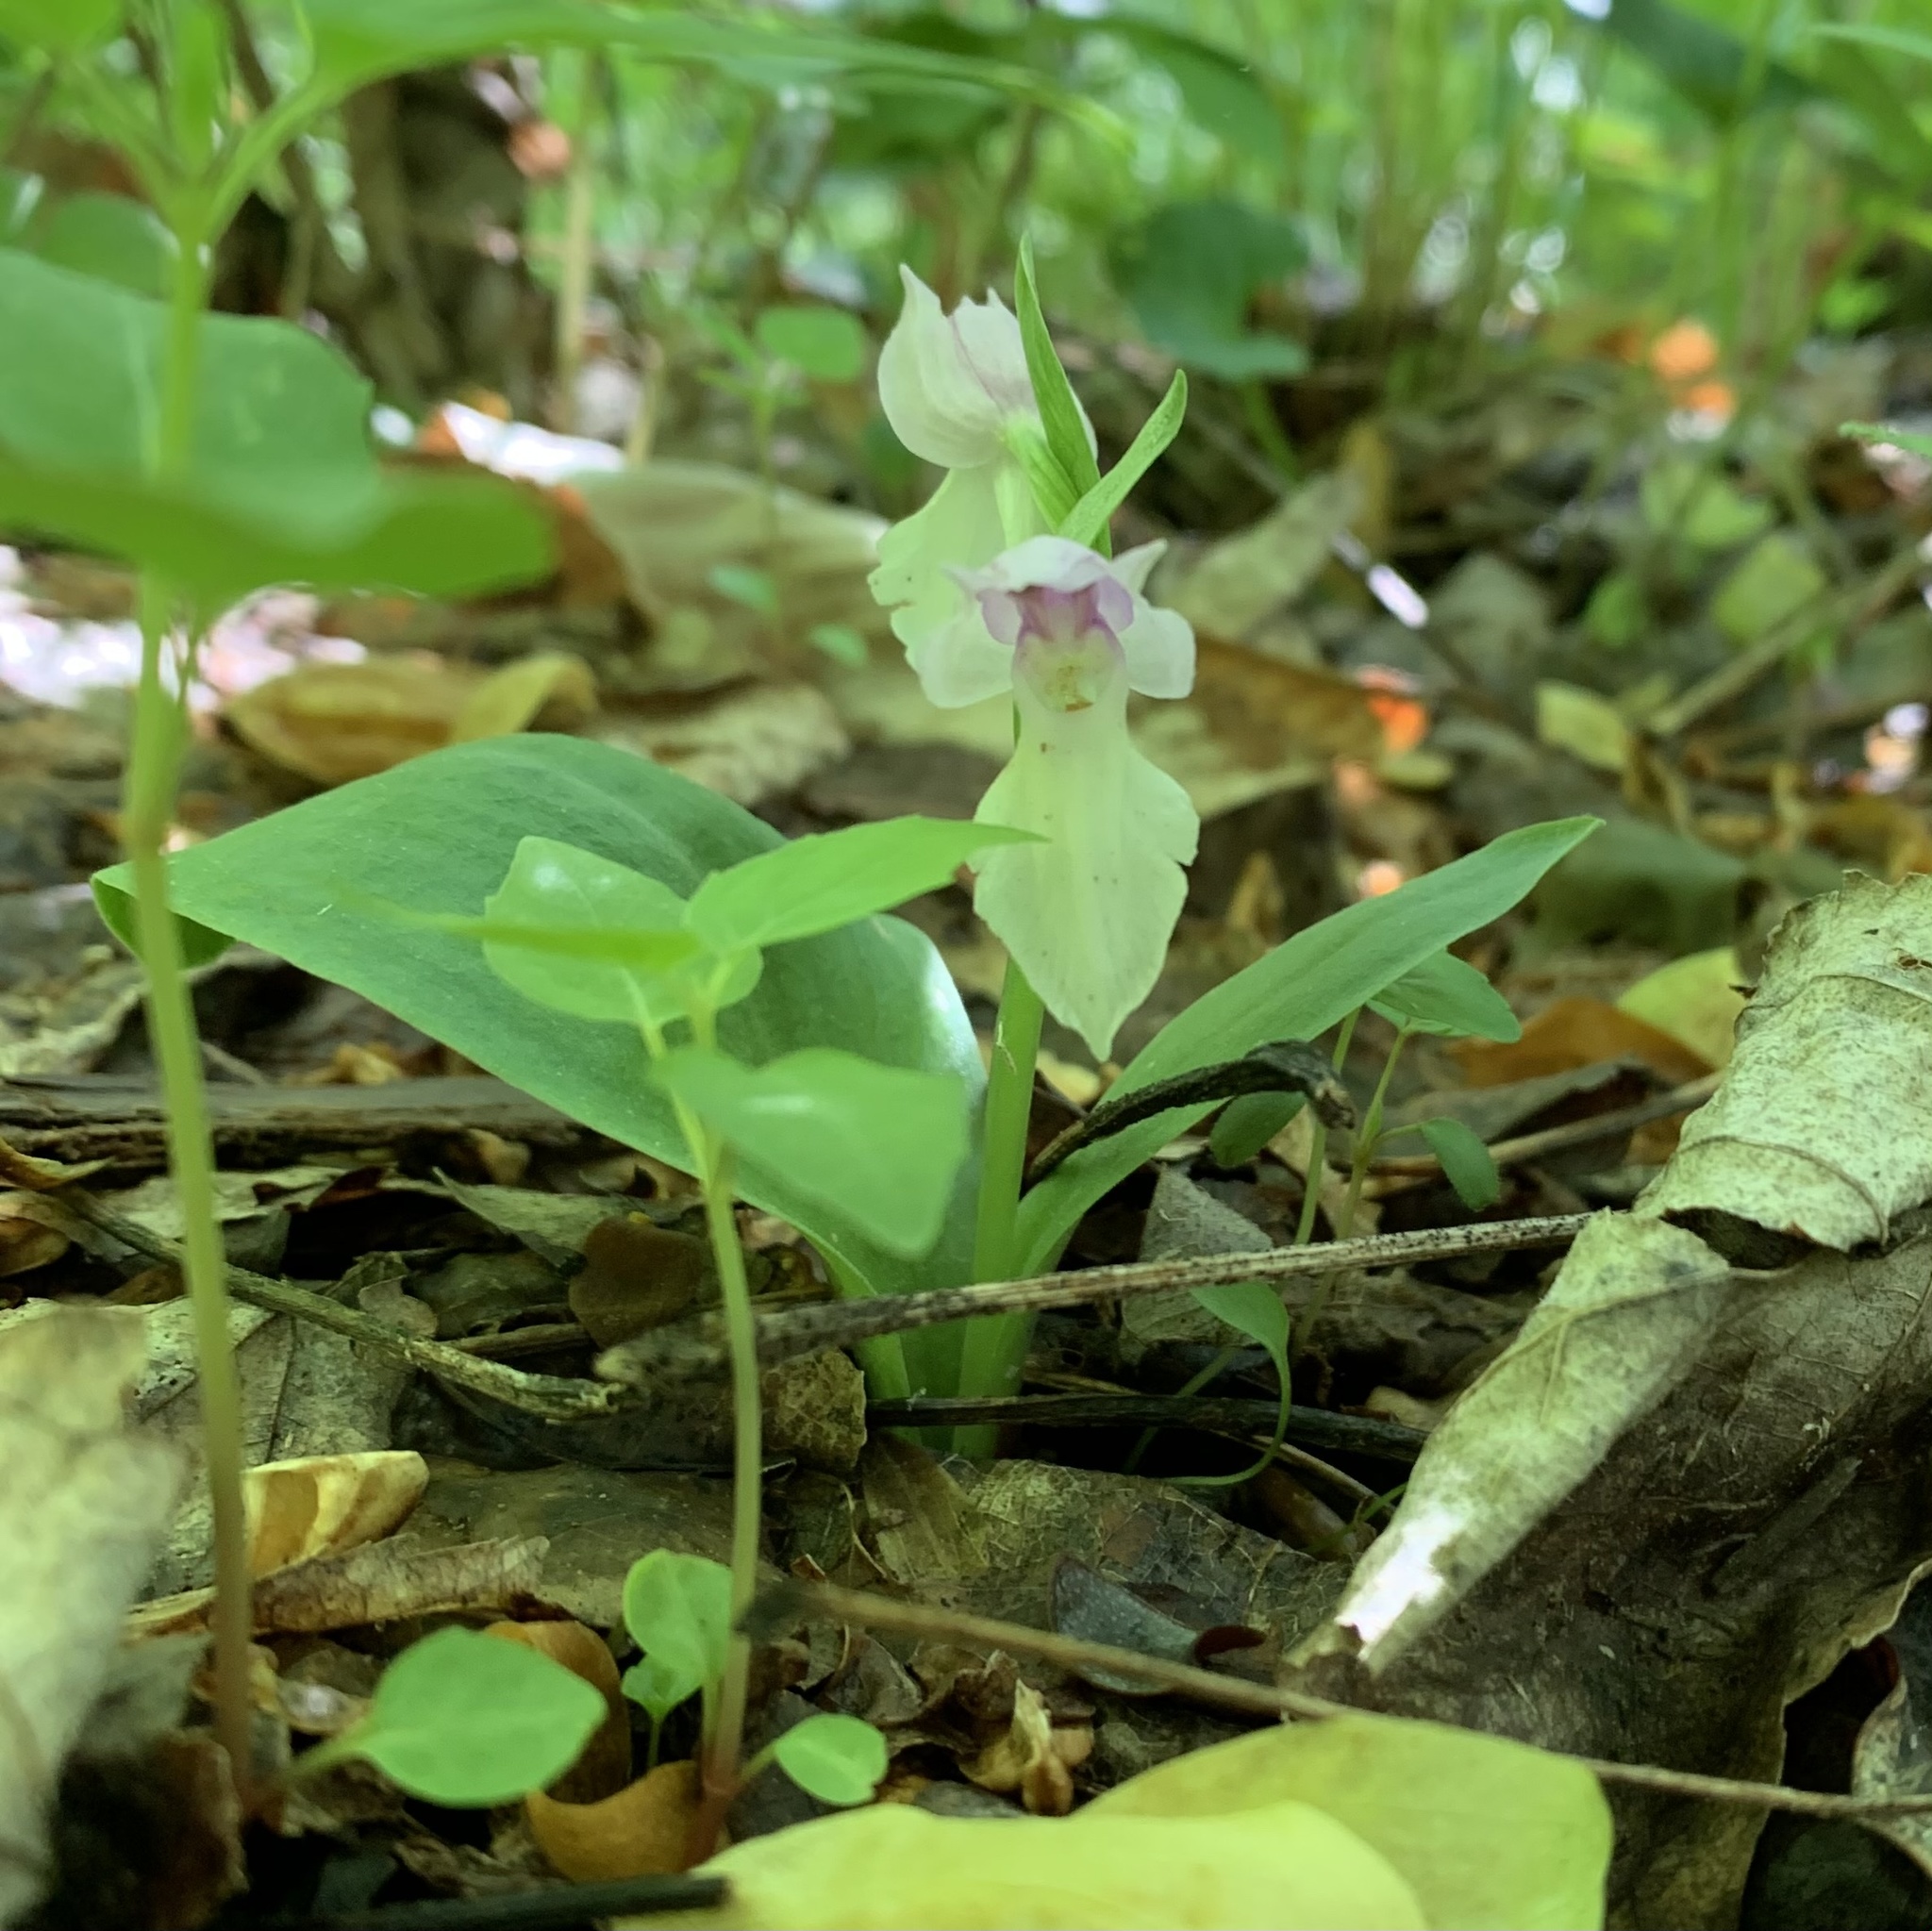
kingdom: Plantae
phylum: Tracheophyta
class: Liliopsida
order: Asparagales
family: Orchidaceae
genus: Galearis
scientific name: Galearis spectabilis
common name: Purple-hooded orchis
